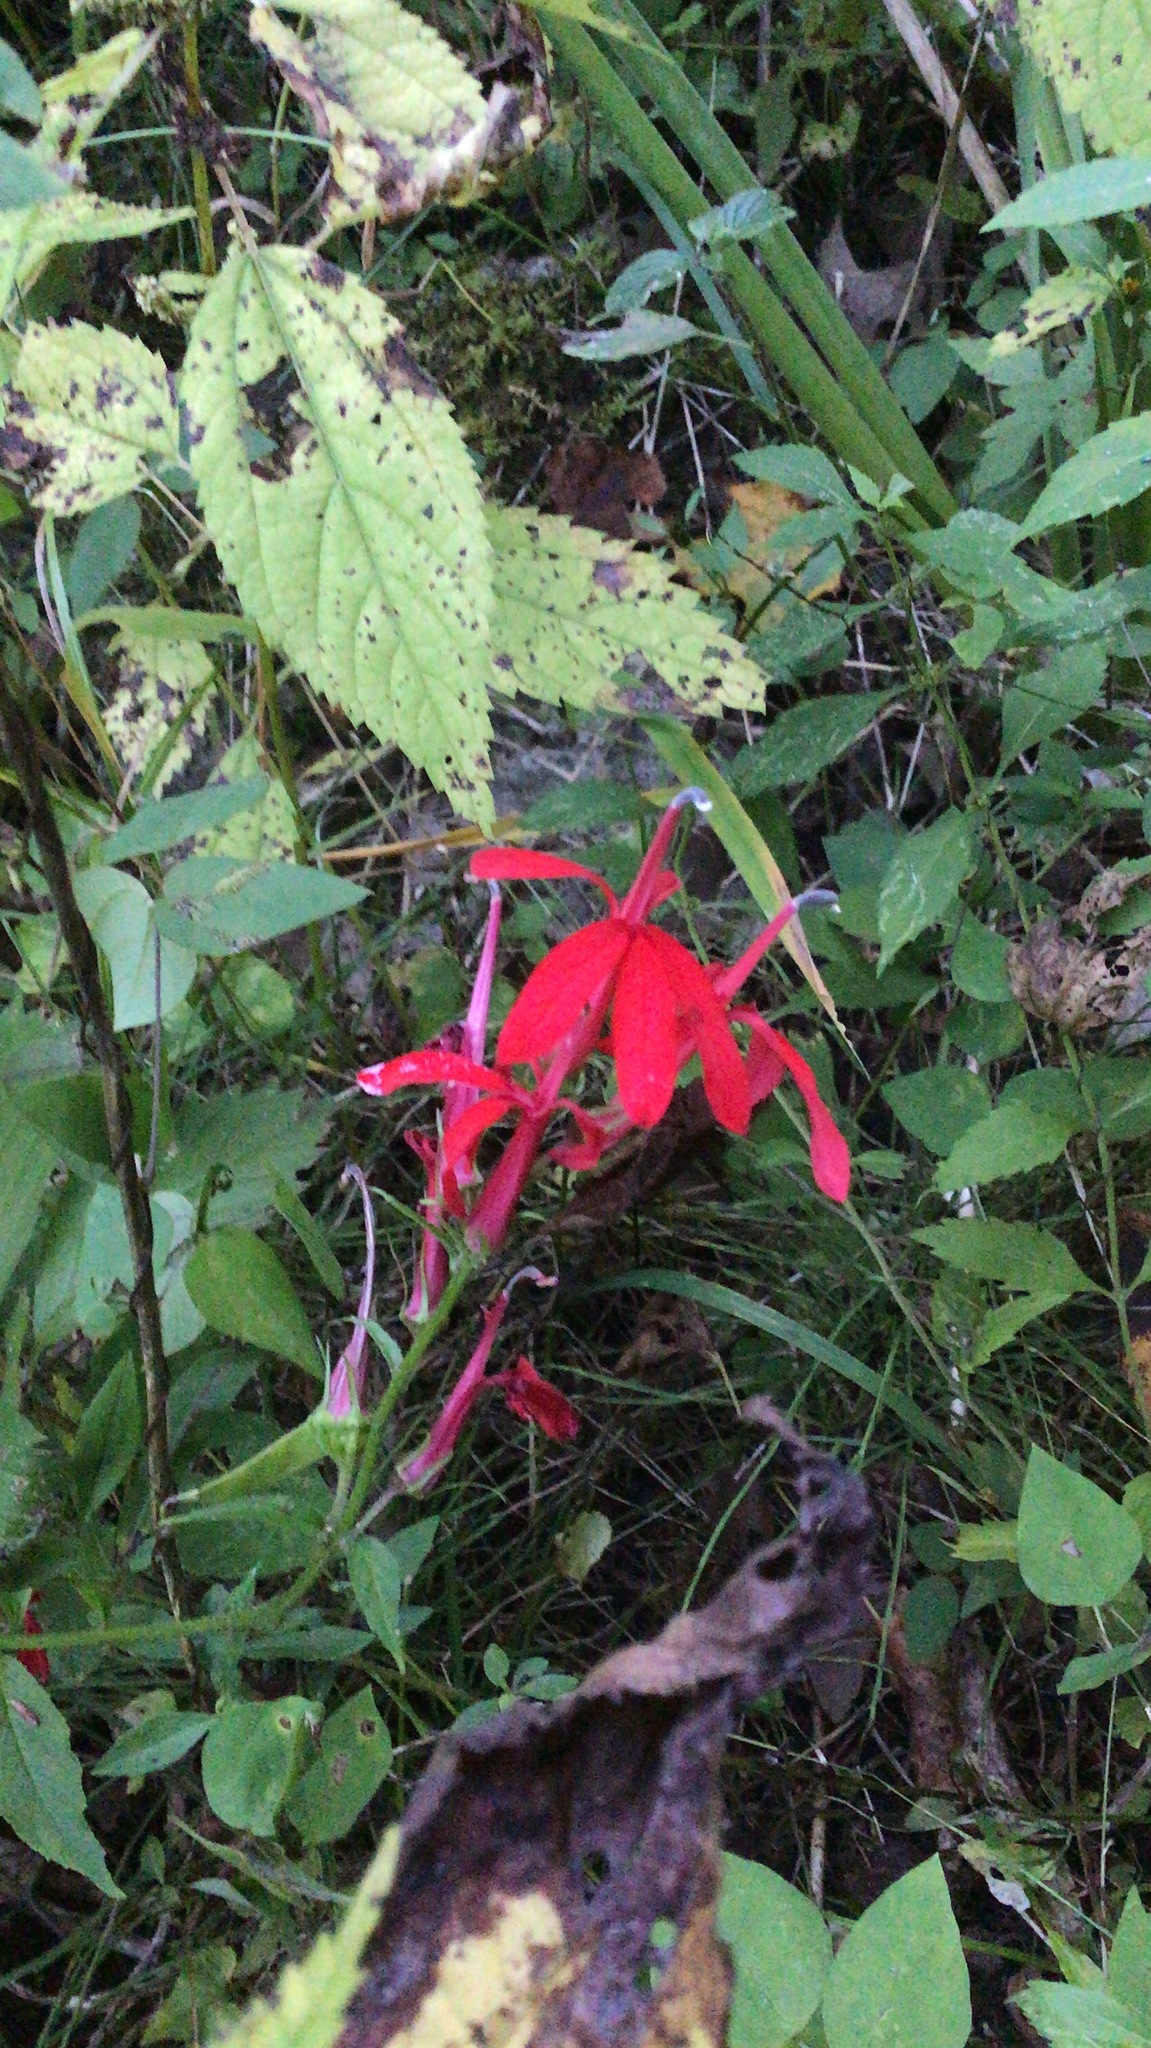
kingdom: Plantae
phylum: Tracheophyta
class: Magnoliopsida
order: Asterales
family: Campanulaceae
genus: Lobelia
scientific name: Lobelia cardinalis
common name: Cardinal flower
